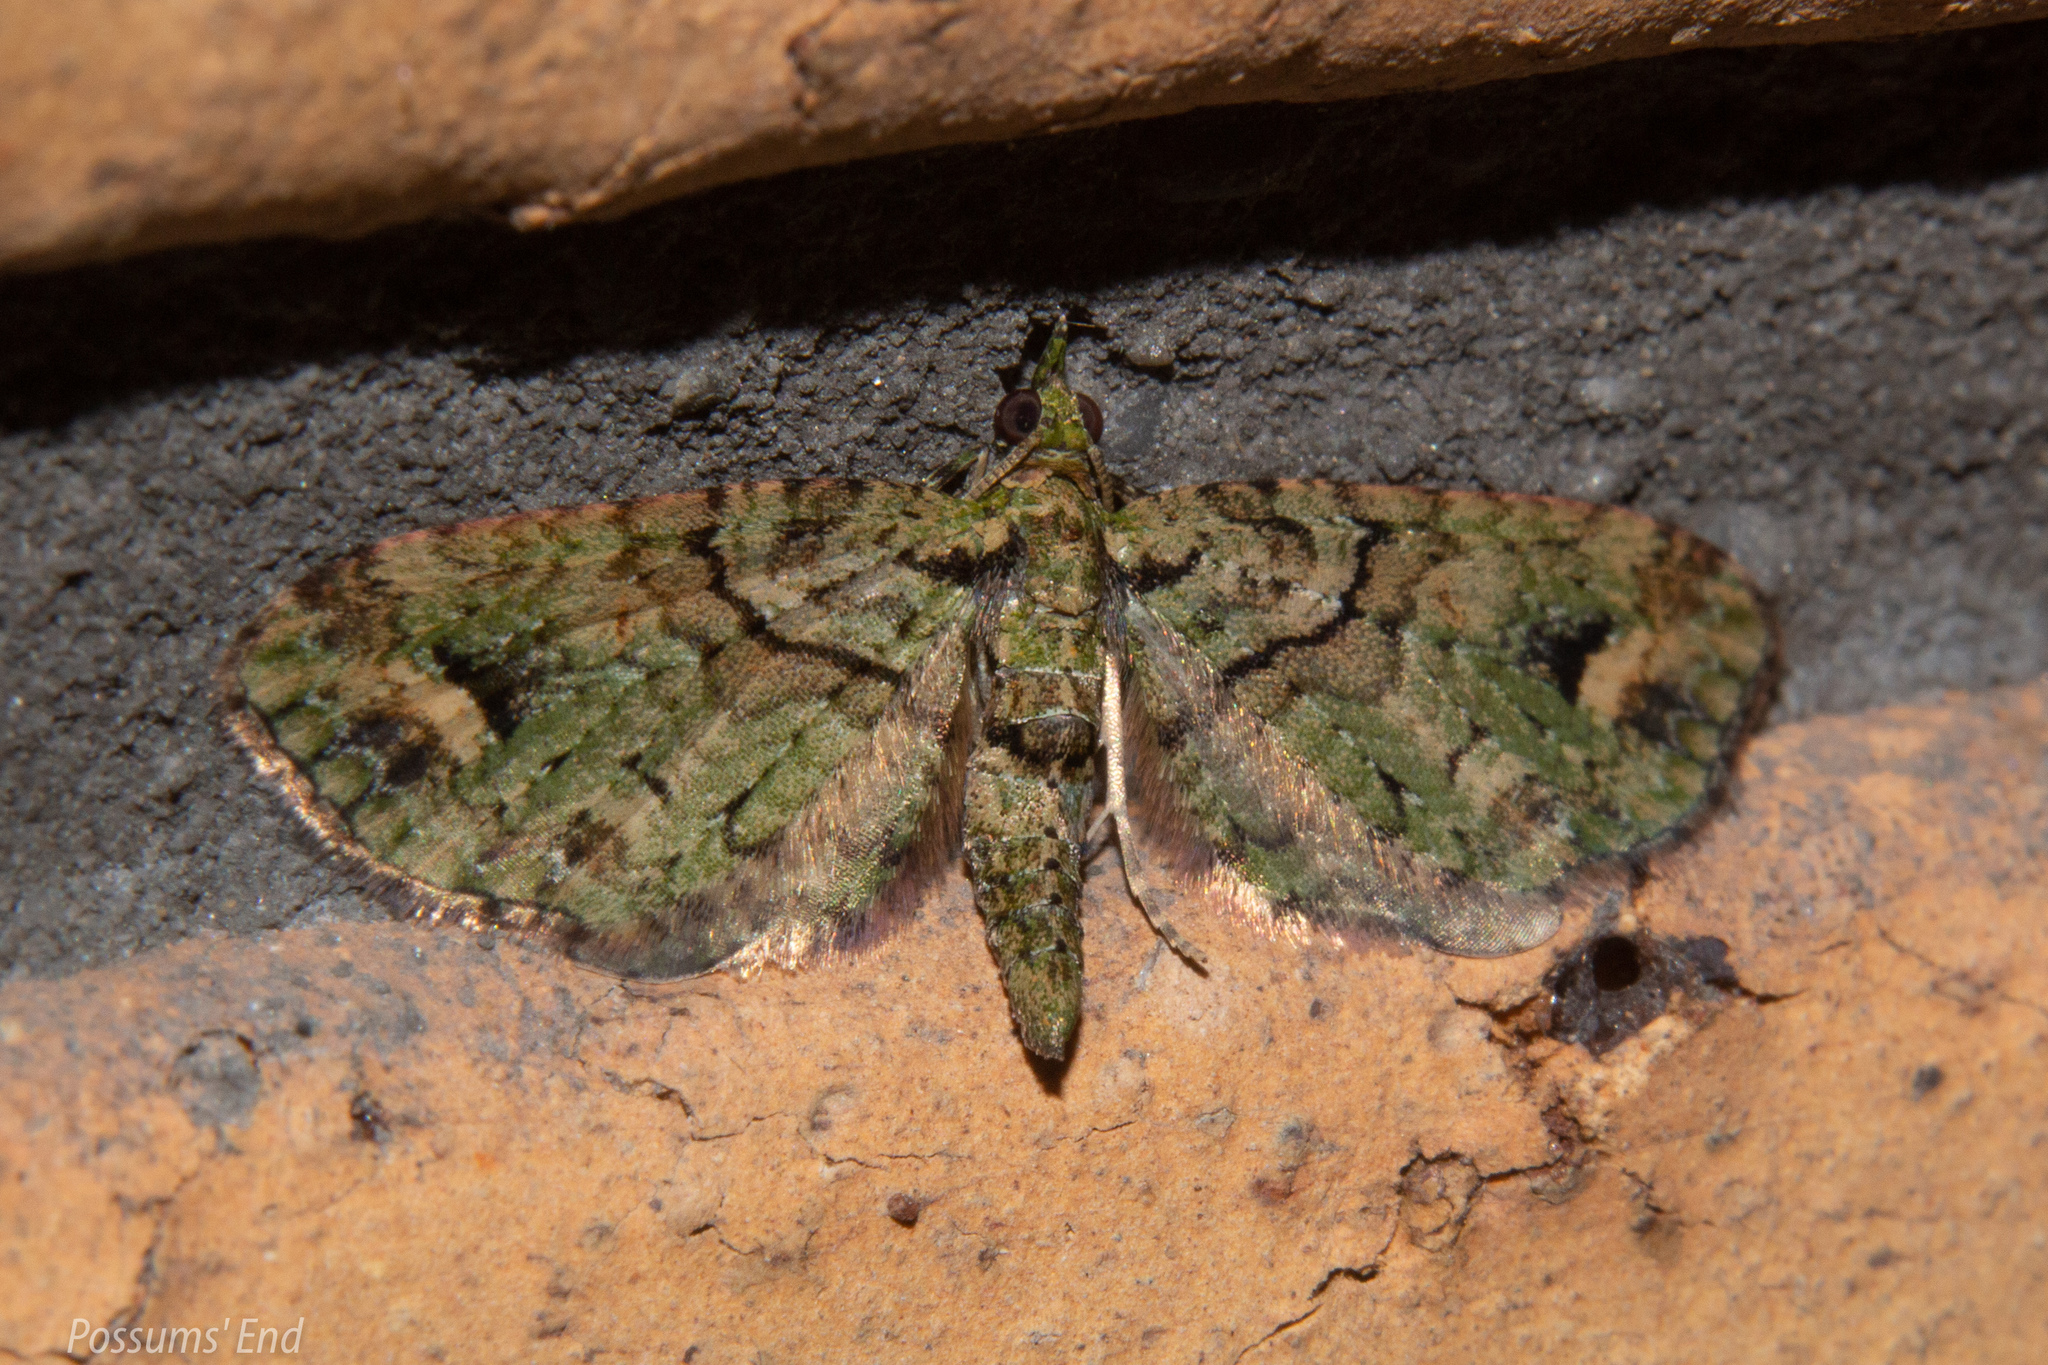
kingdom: Animalia
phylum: Arthropoda
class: Insecta
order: Lepidoptera
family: Geometridae
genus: Idaea
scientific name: Idaea mutanda
